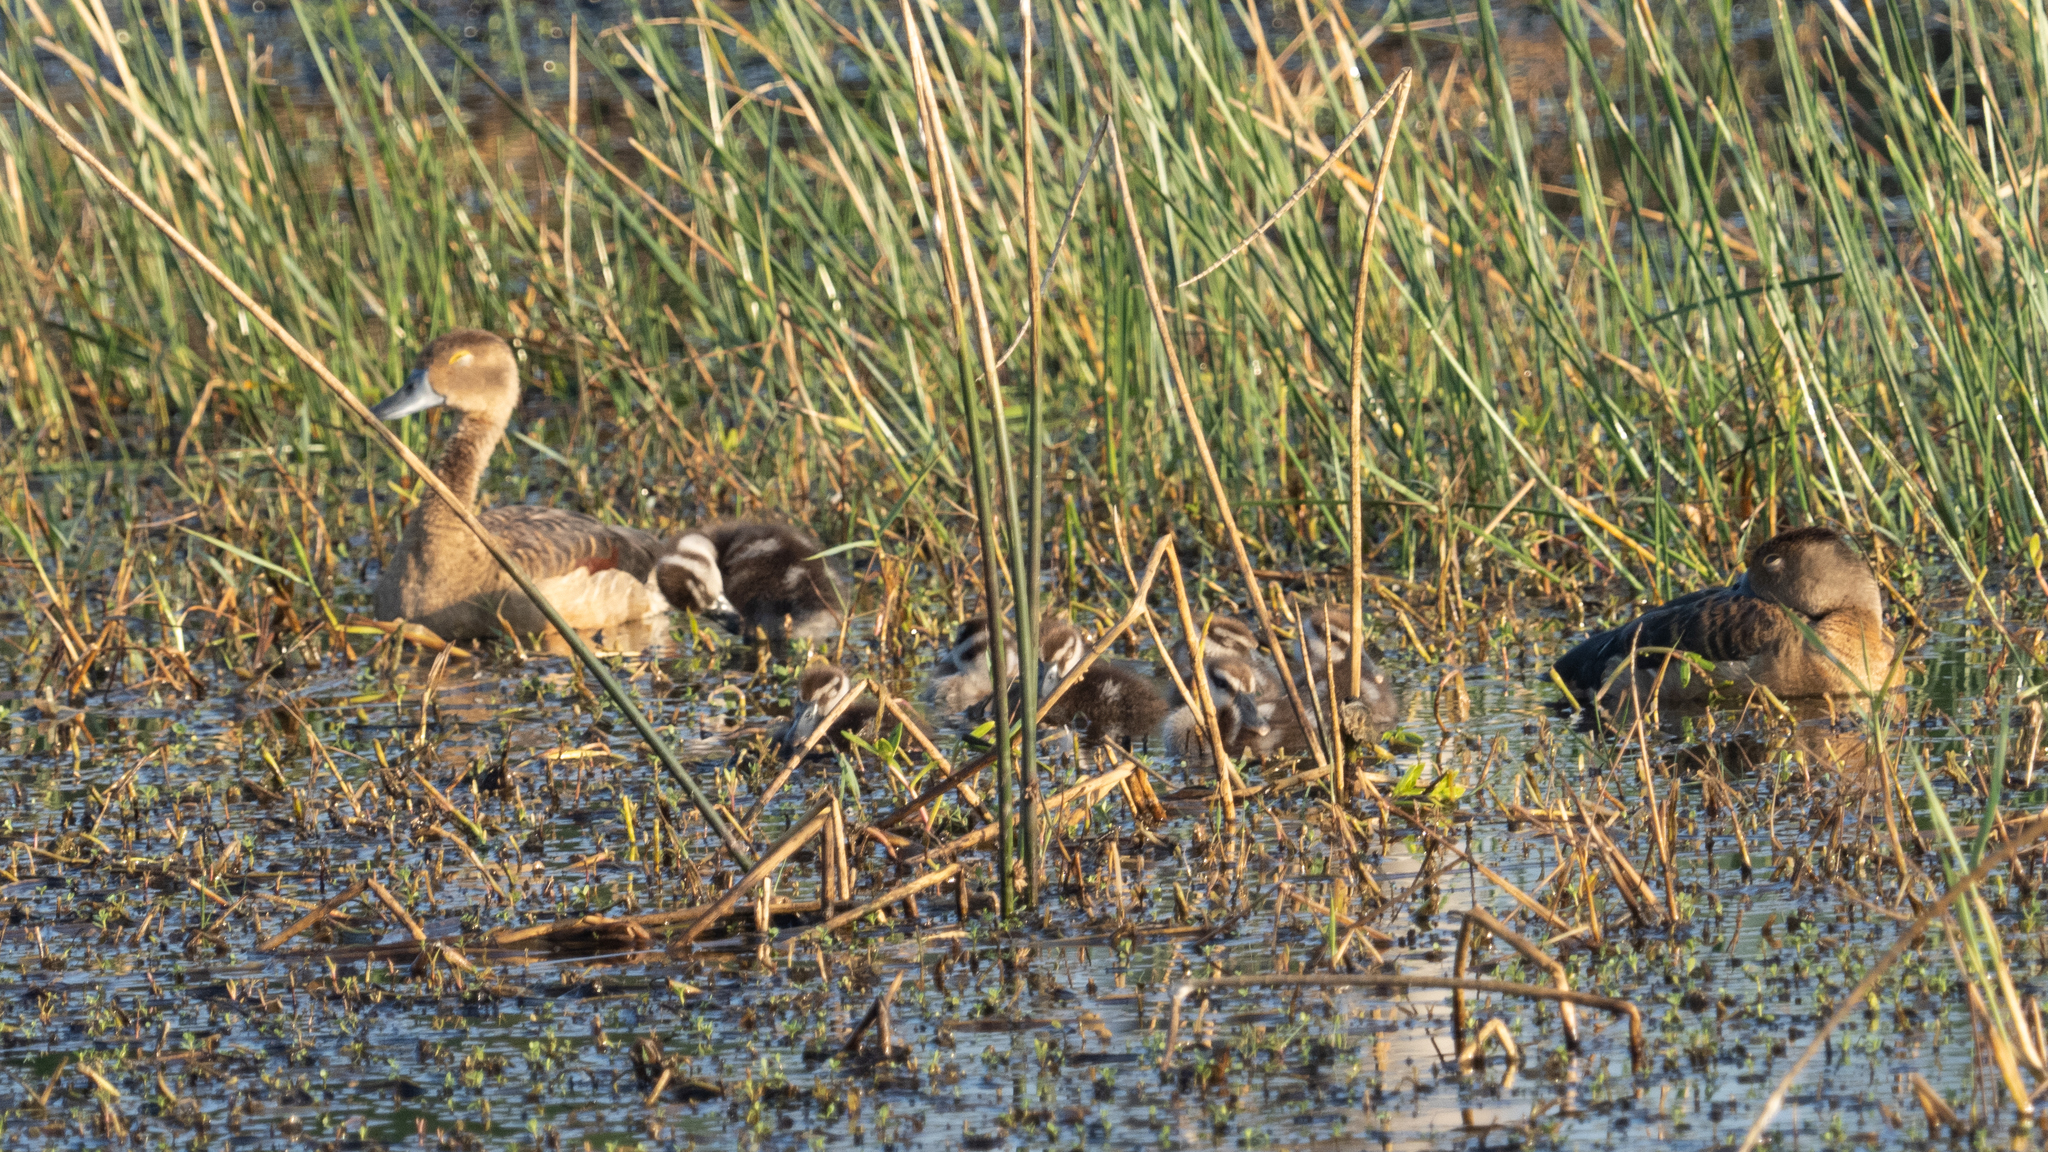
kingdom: Animalia
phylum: Chordata
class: Aves
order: Anseriformes
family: Anatidae
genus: Dendrocygna
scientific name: Dendrocygna javanica
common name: Lesser whistling-duck
